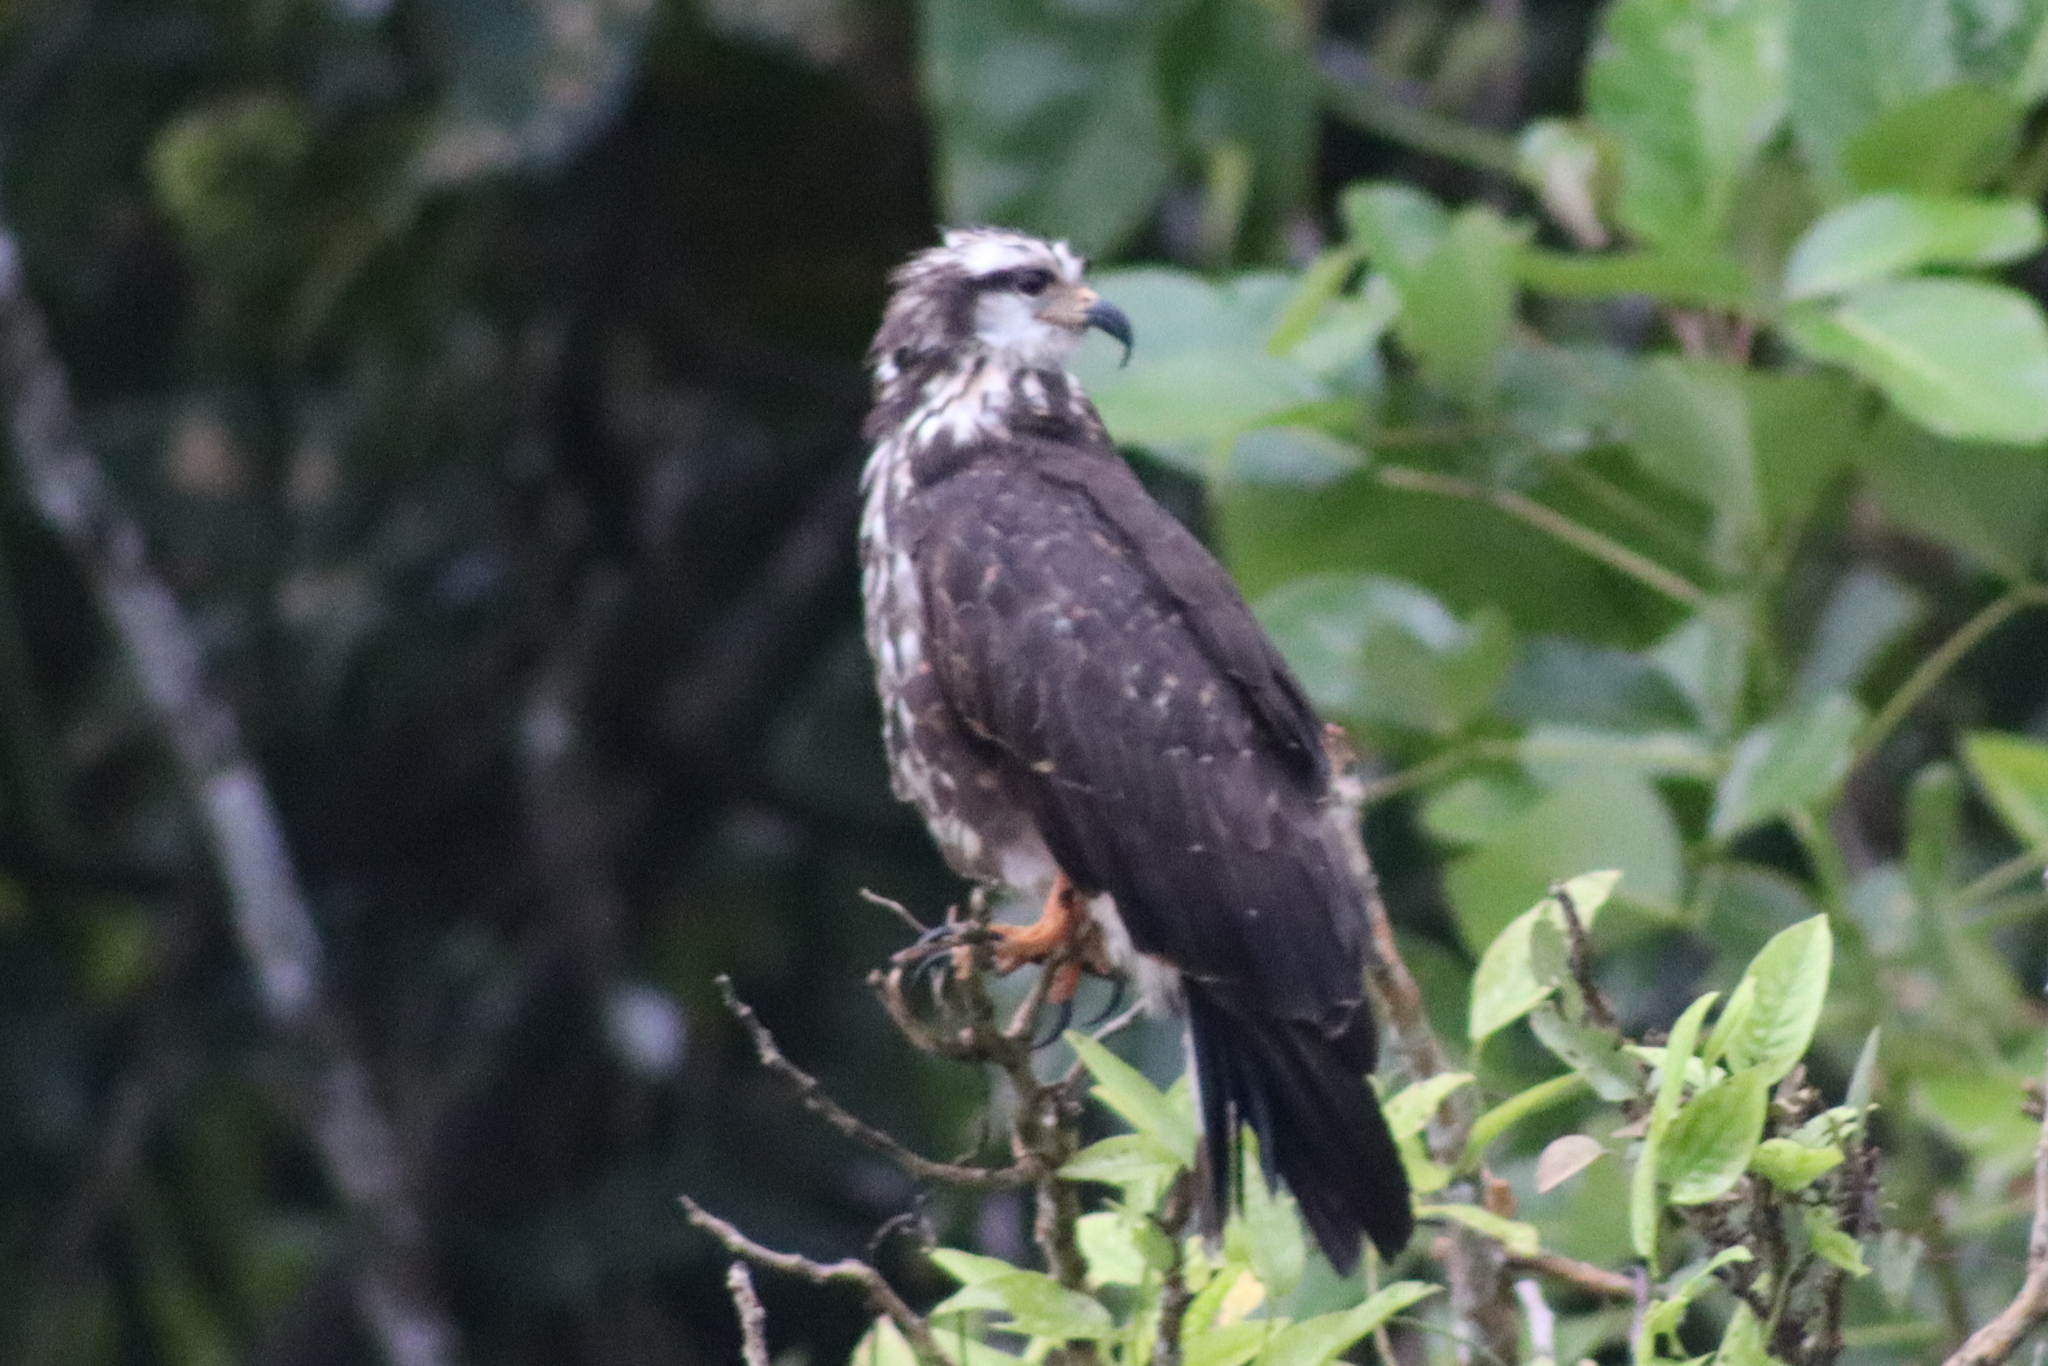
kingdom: Animalia
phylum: Chordata
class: Aves
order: Accipitriformes
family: Accipitridae
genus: Rostrhamus
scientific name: Rostrhamus sociabilis
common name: Snail kite
